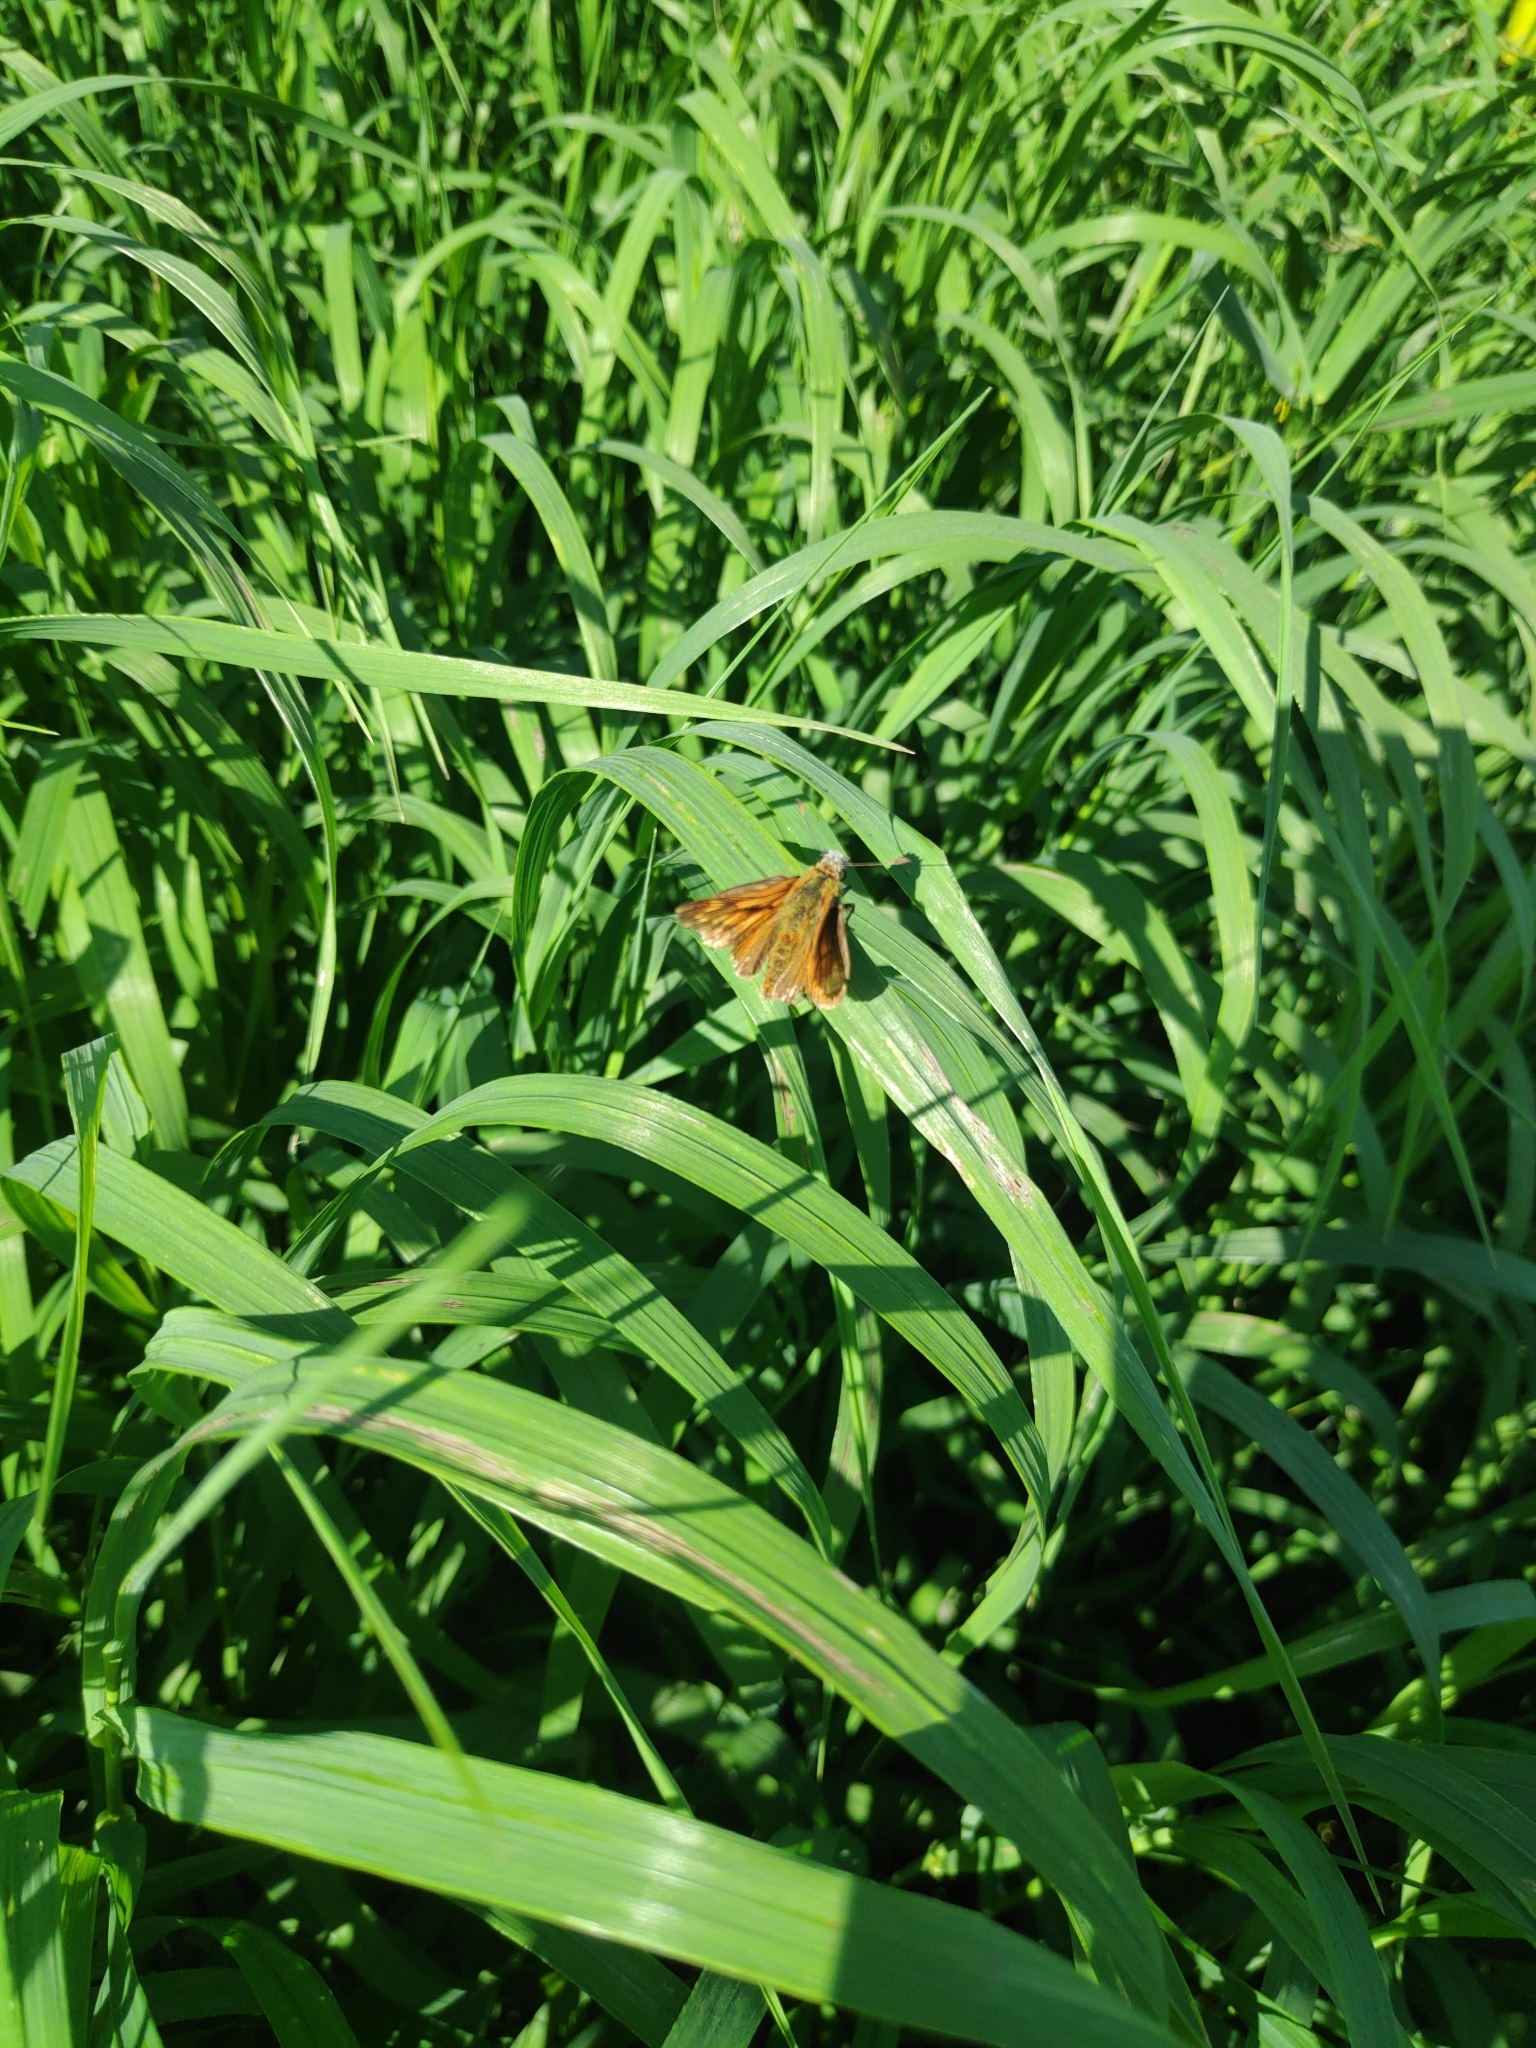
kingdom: Animalia
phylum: Arthropoda
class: Insecta
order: Lepidoptera
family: Hesperiidae
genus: Ochlodes
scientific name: Ochlodes venata
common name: Large skipper
